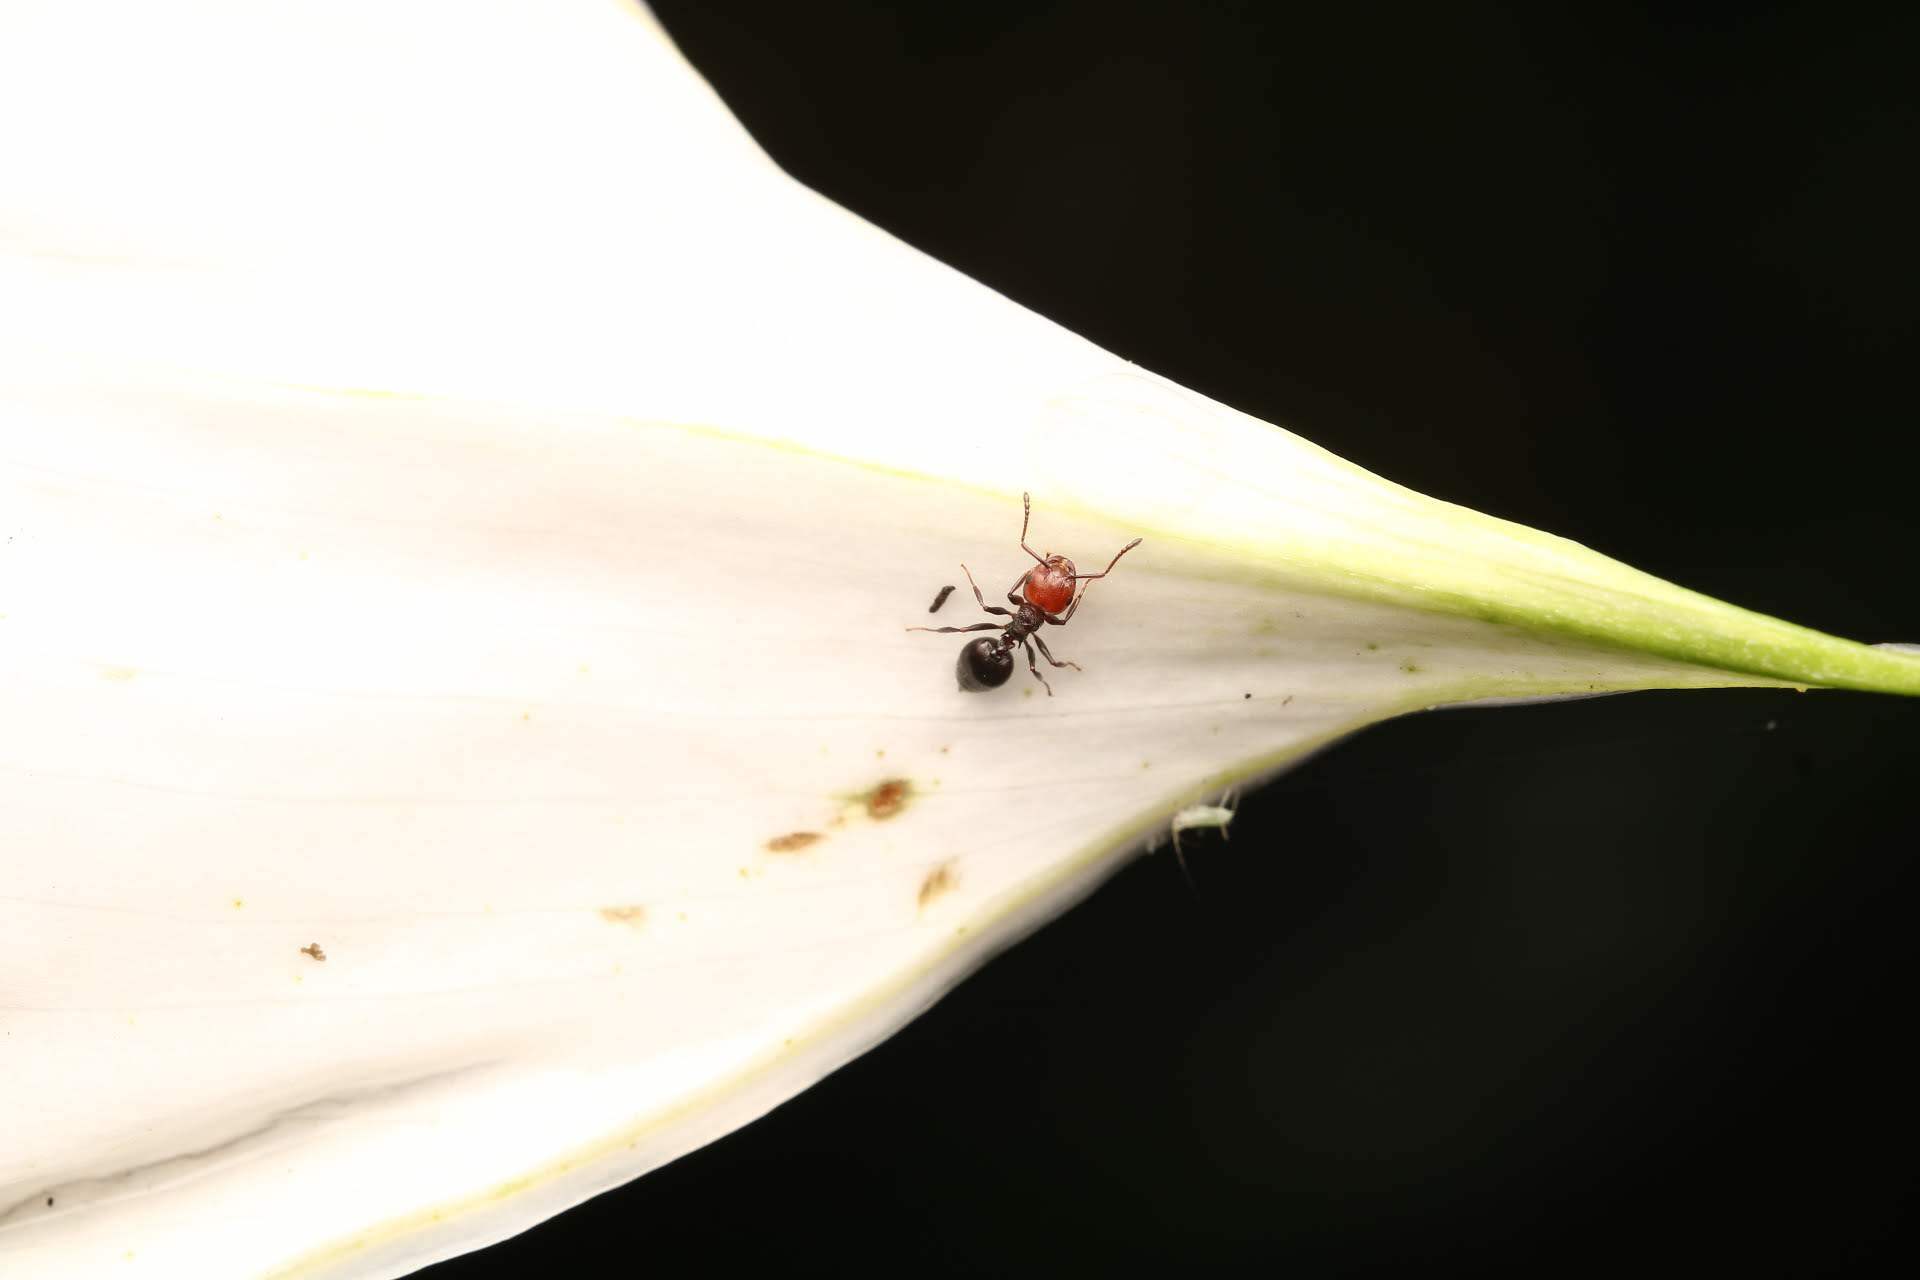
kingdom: Animalia
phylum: Arthropoda
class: Insecta
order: Hymenoptera
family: Formicidae
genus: Crematogaster
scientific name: Crematogaster scutellaris
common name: Fourmi du liège
